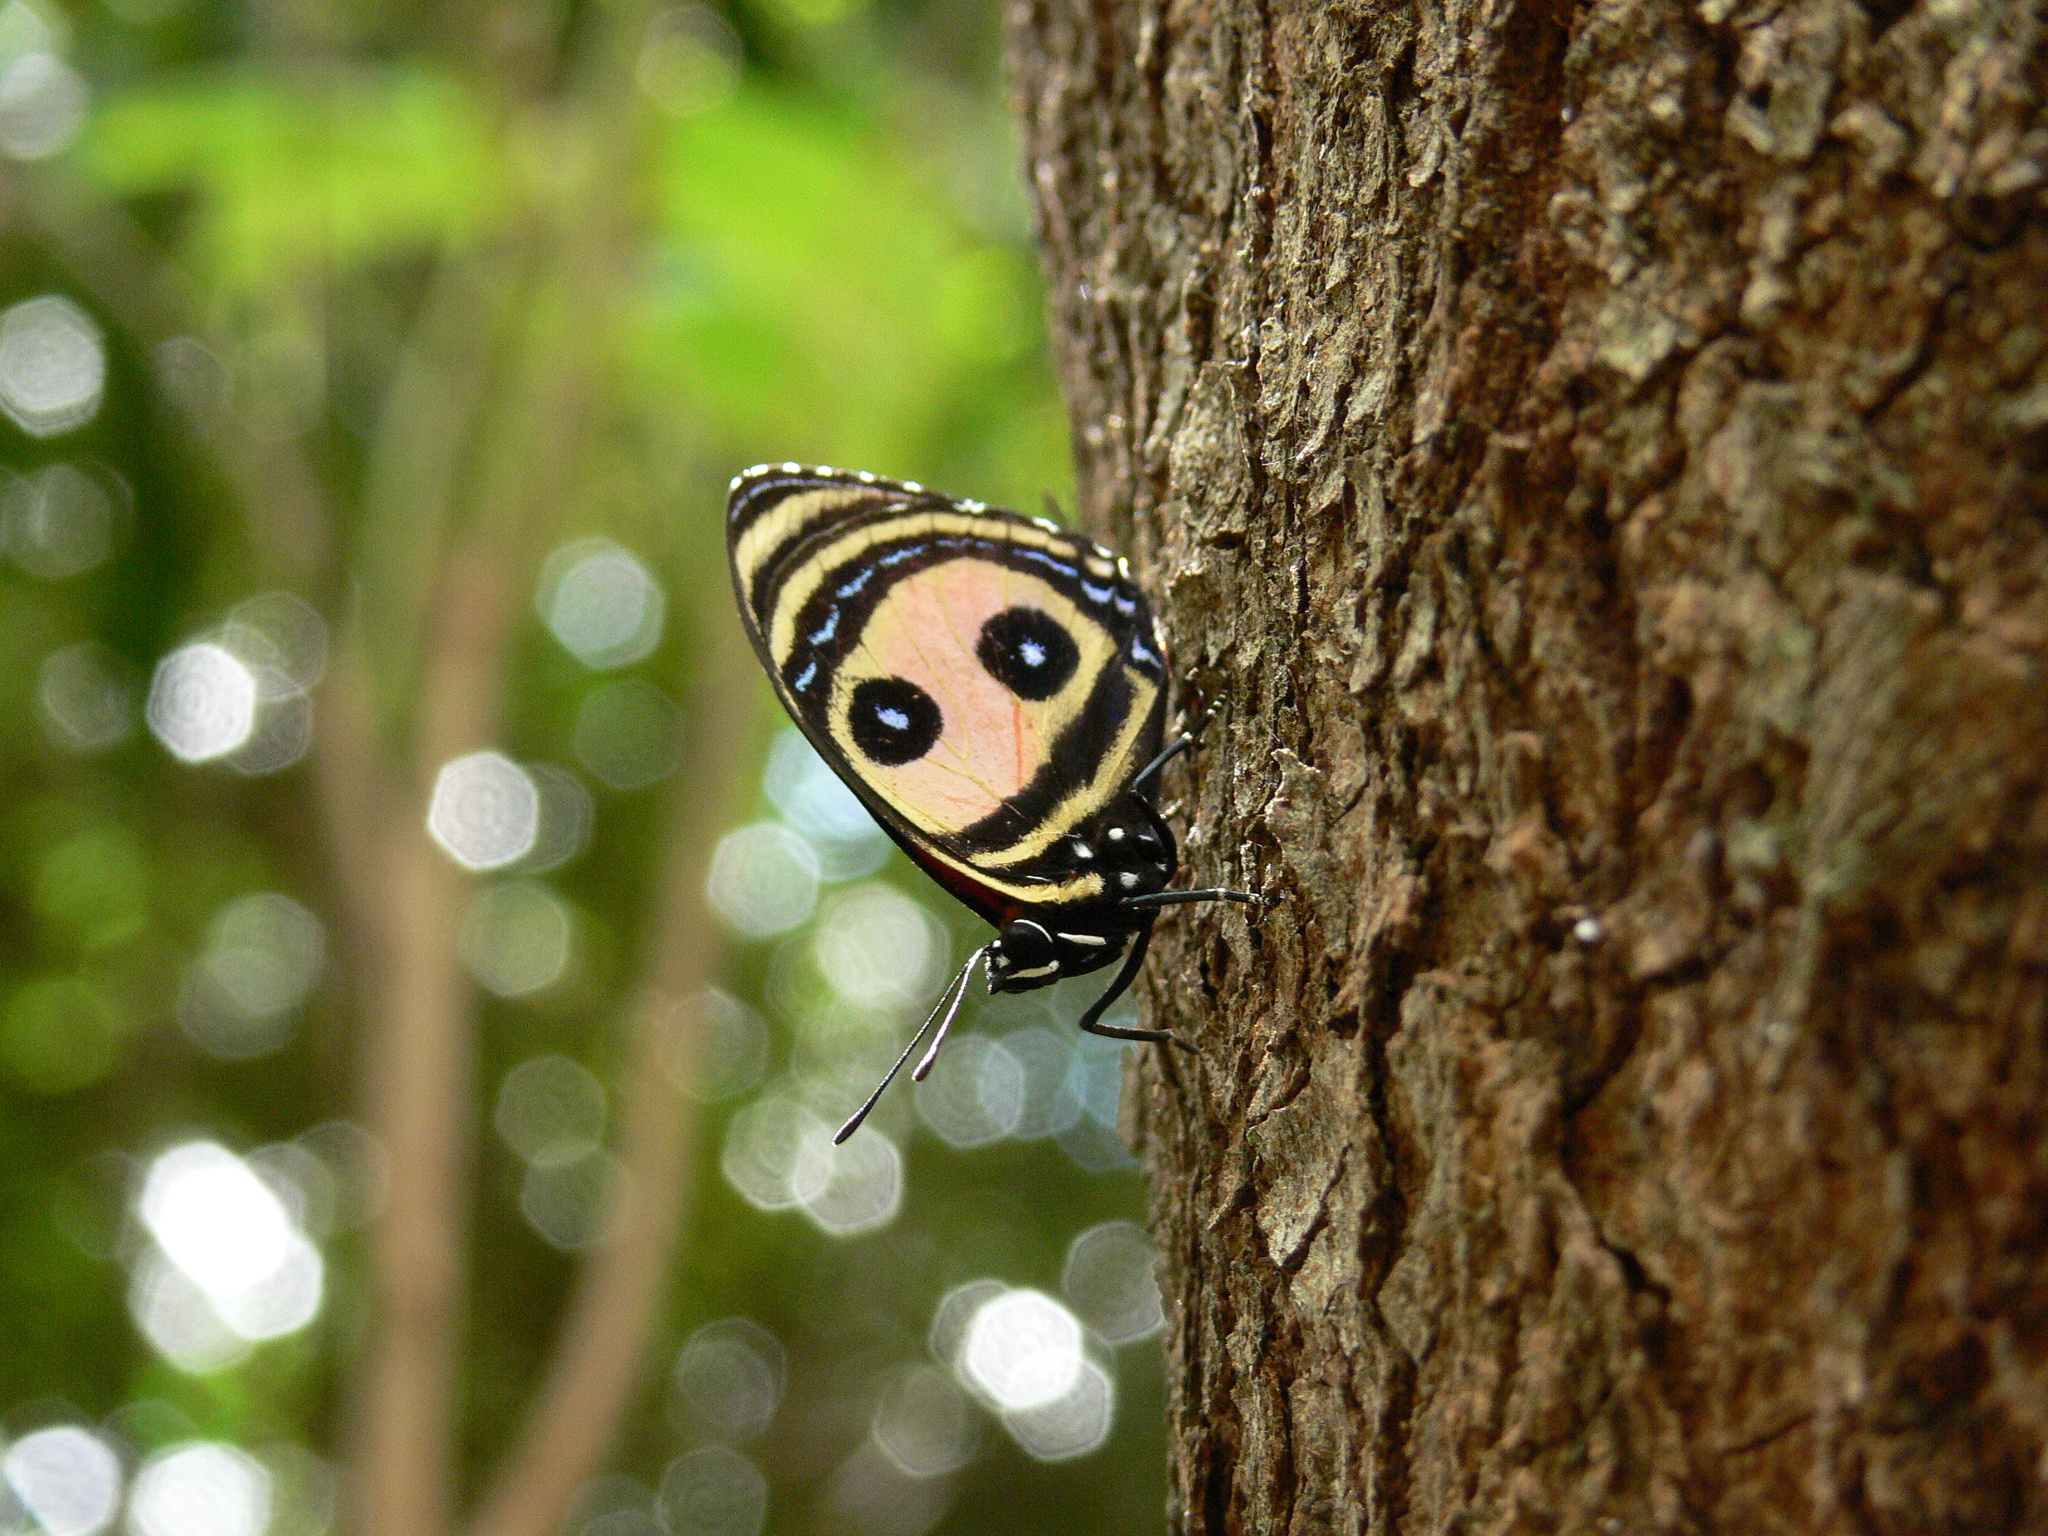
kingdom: Animalia
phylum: Arthropoda
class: Insecta
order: Lepidoptera
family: Nymphalidae
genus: Catagramma
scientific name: Catagramma Callicore pitheas
